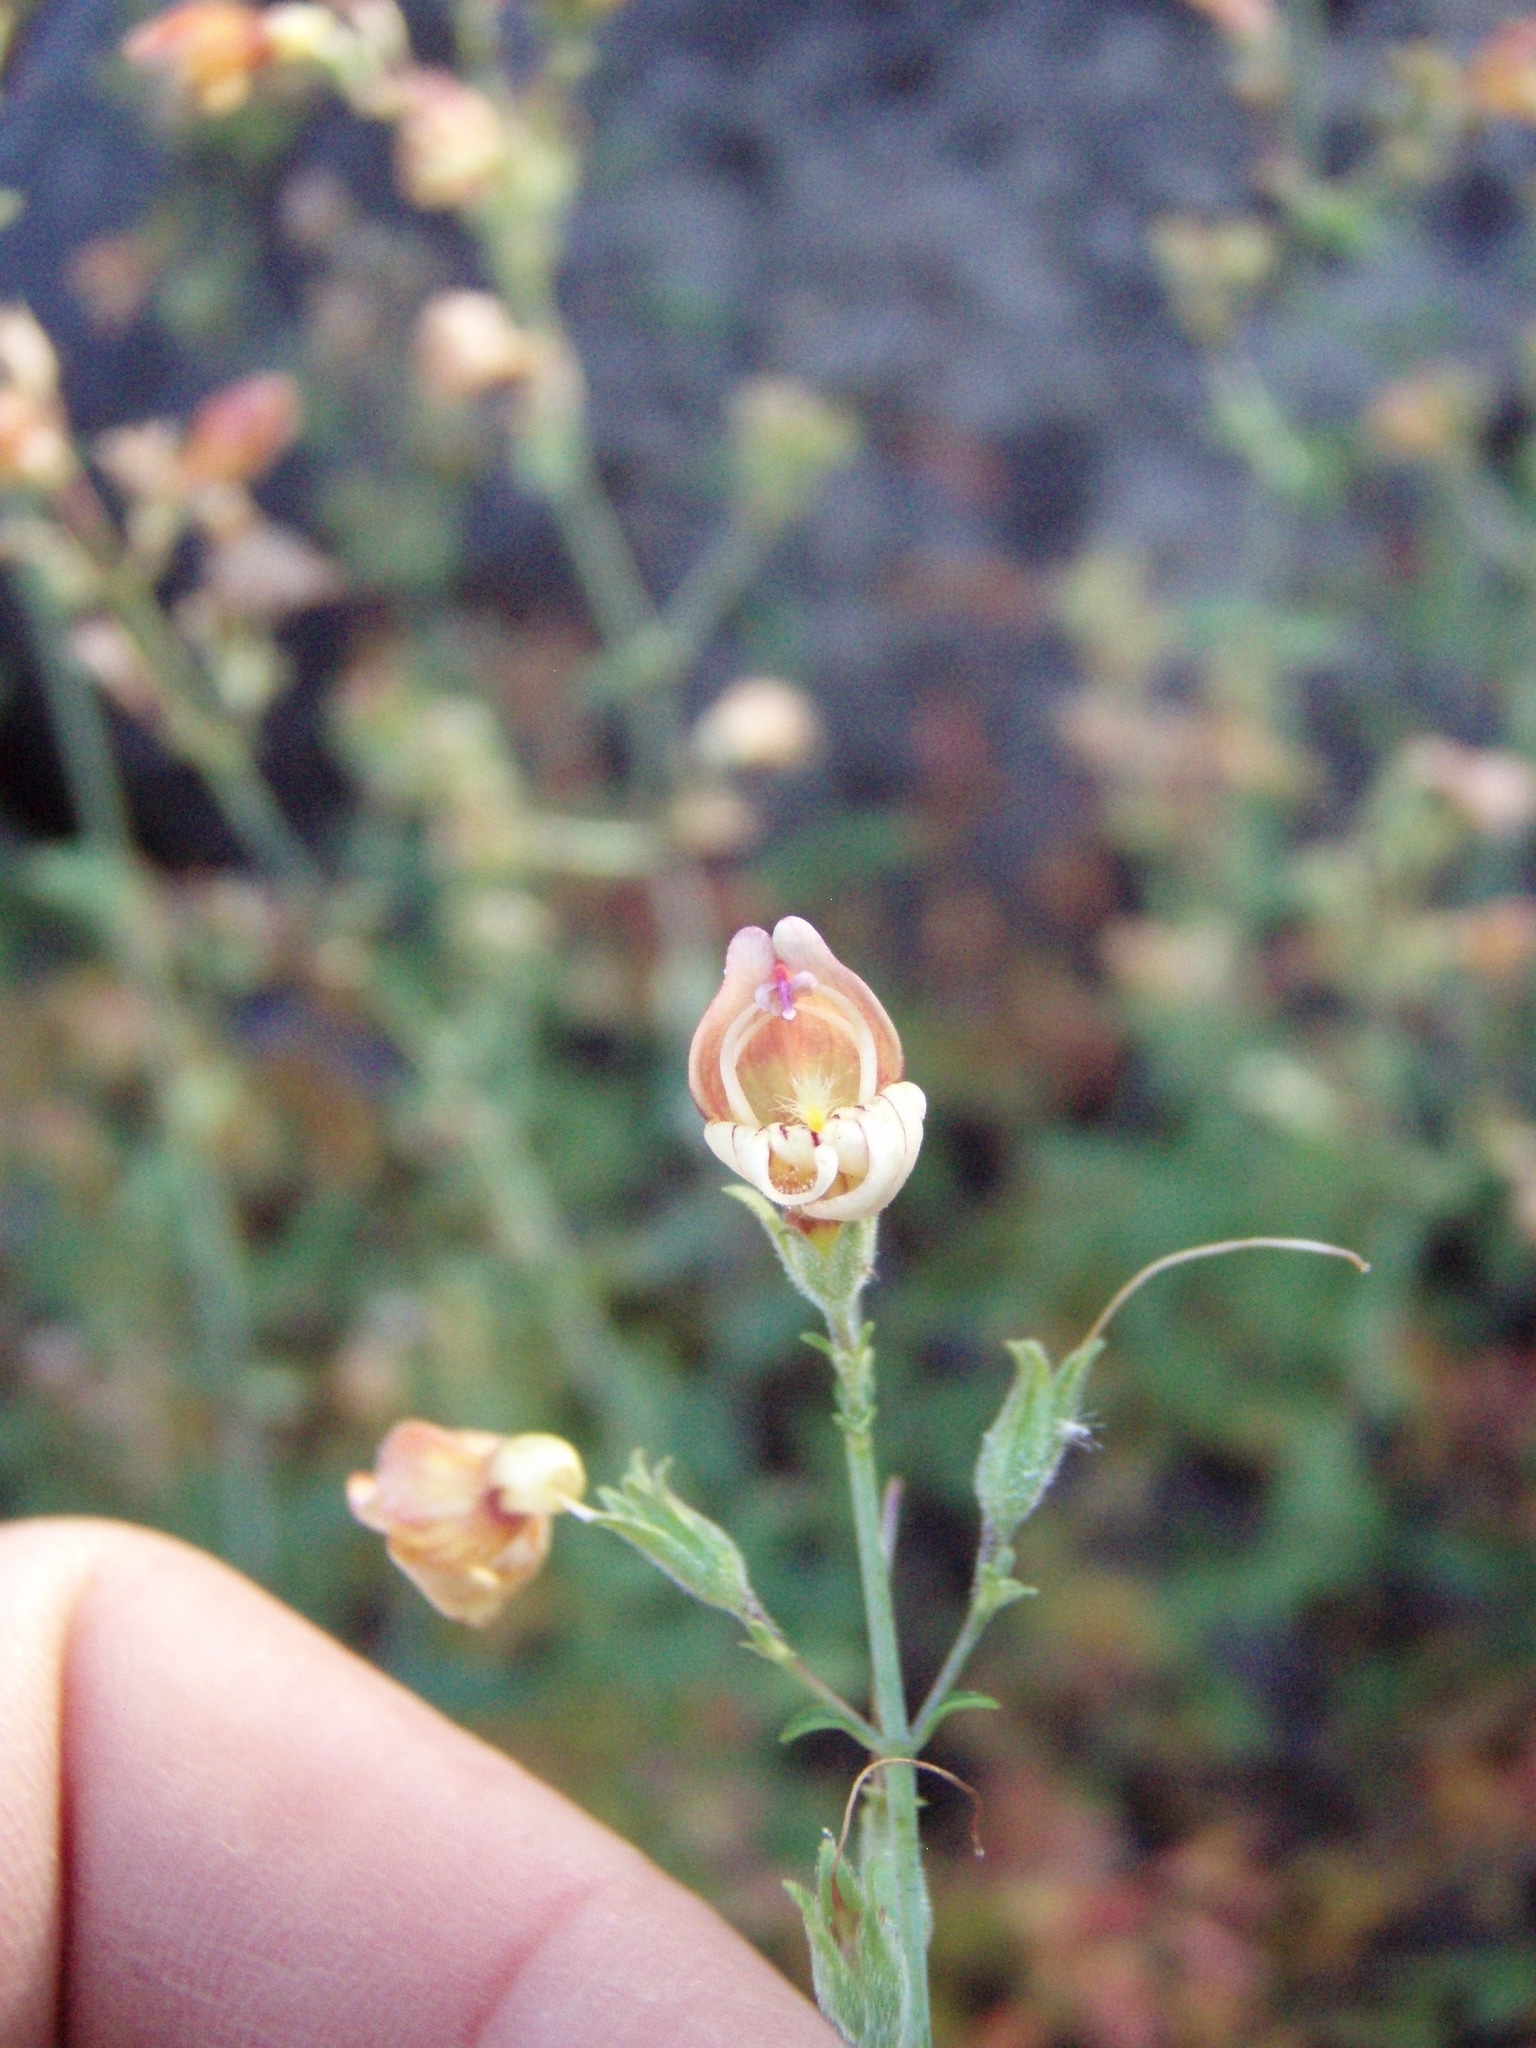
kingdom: Plantae
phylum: Tracheophyta
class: Magnoliopsida
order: Lamiales
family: Plantaginaceae
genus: Keckiella
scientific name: Keckiella lemmonii
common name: Lemmon's keckiella
